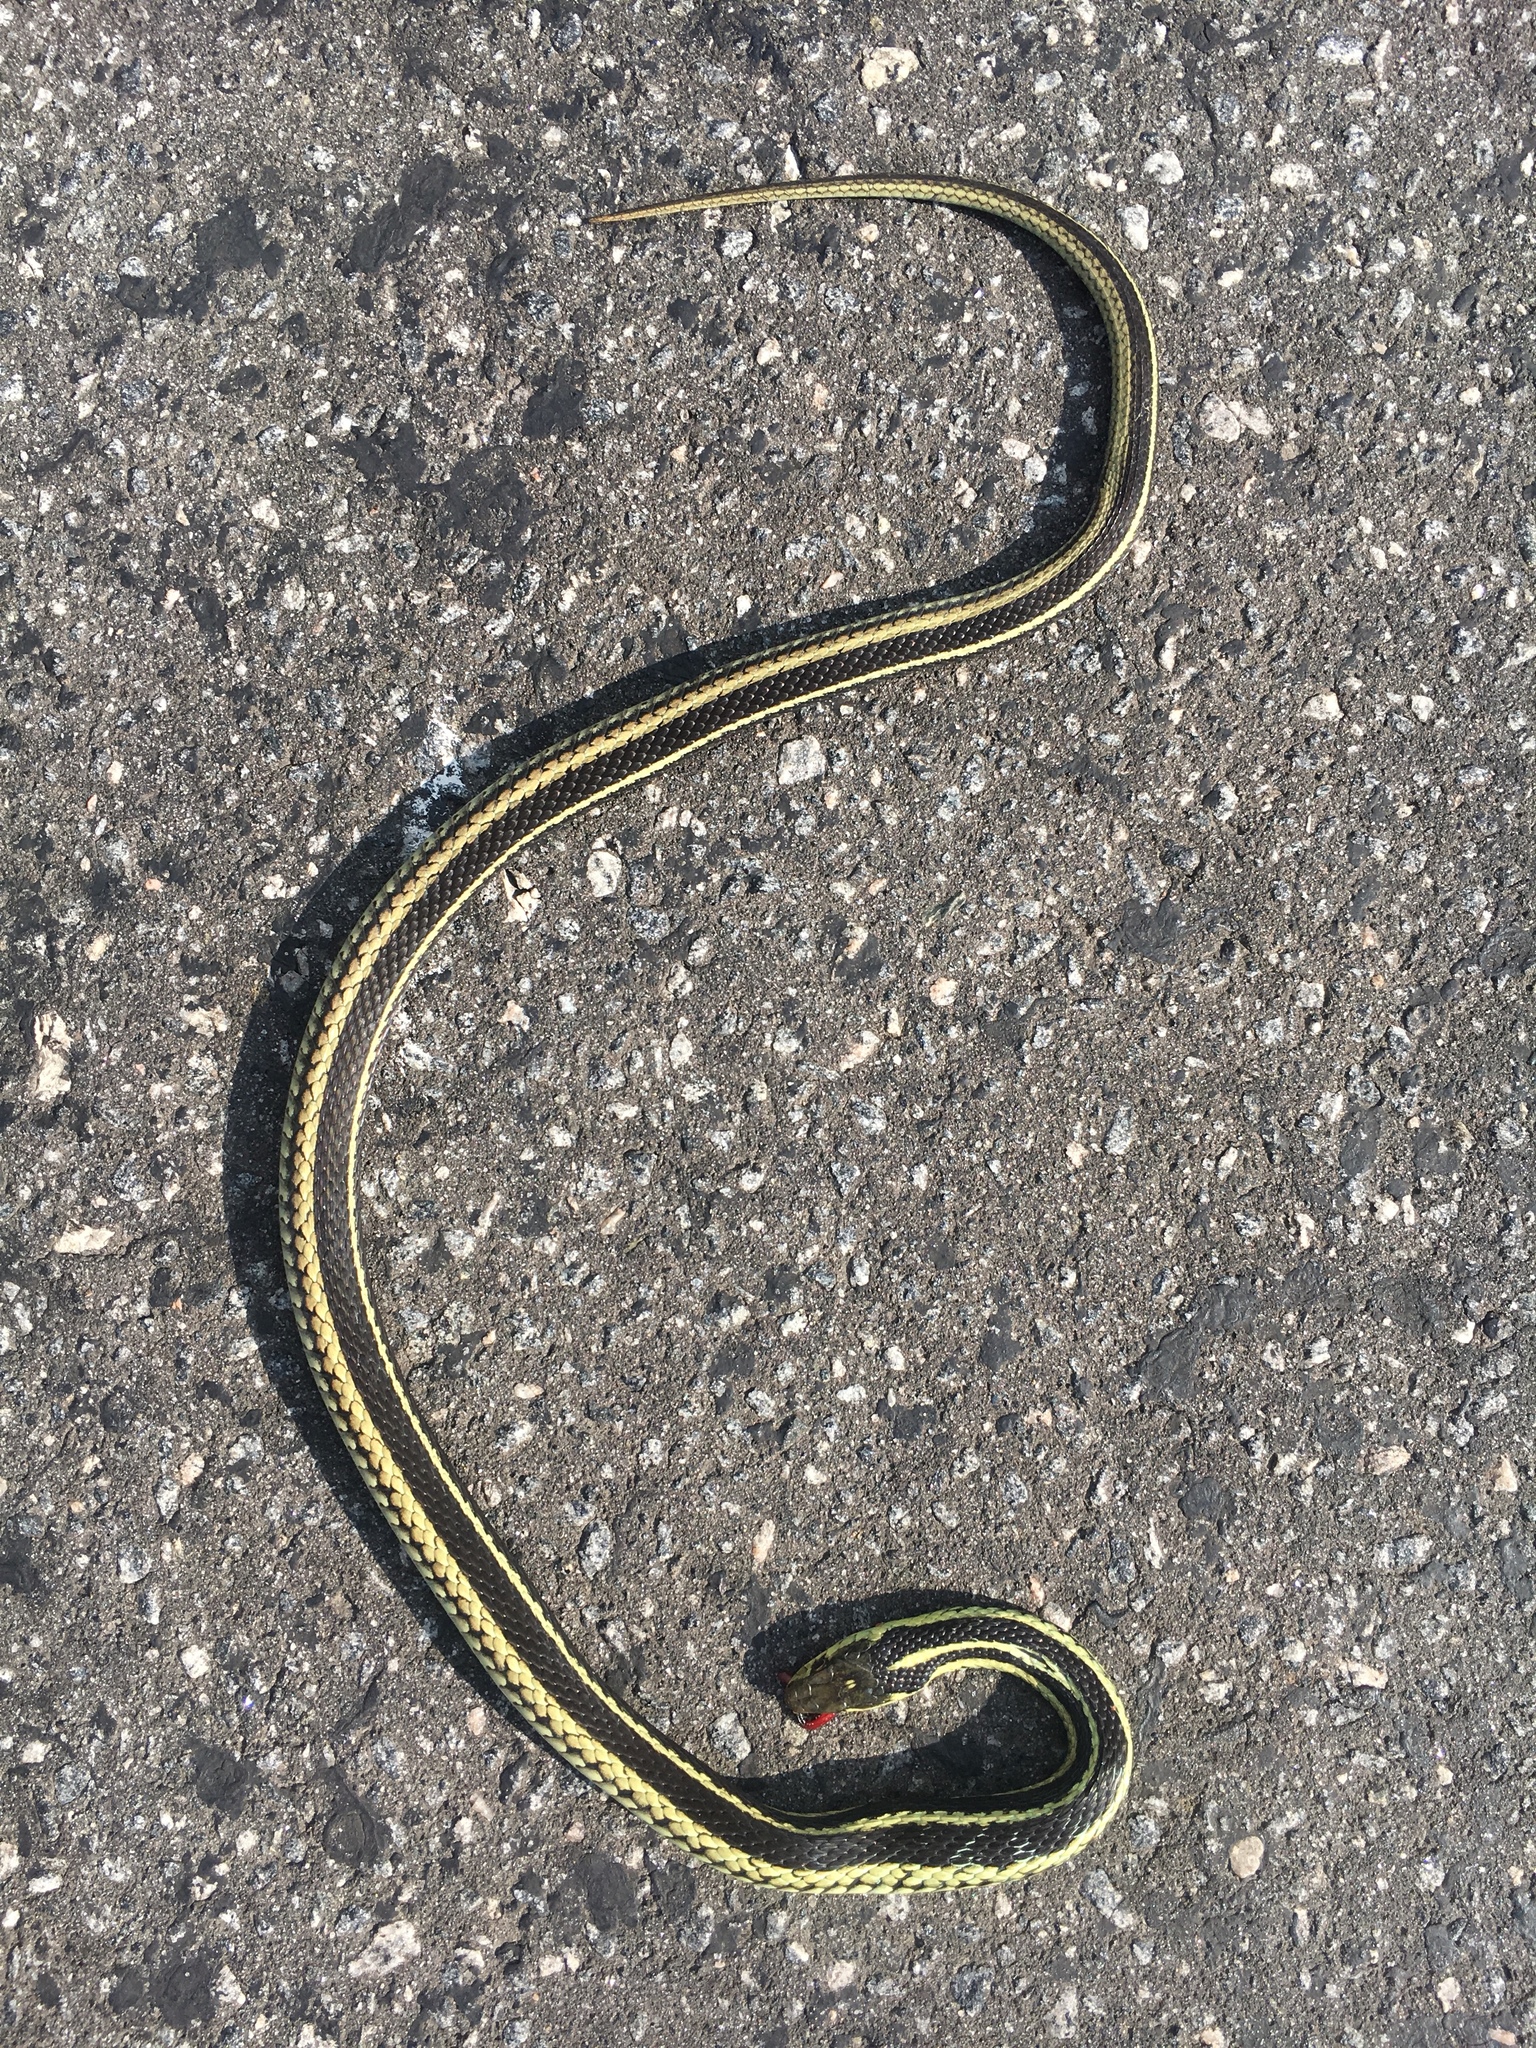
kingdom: Animalia
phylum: Chordata
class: Squamata
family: Colubridae
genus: Thamnophis
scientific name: Thamnophis sirtalis
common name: Common garter snake
